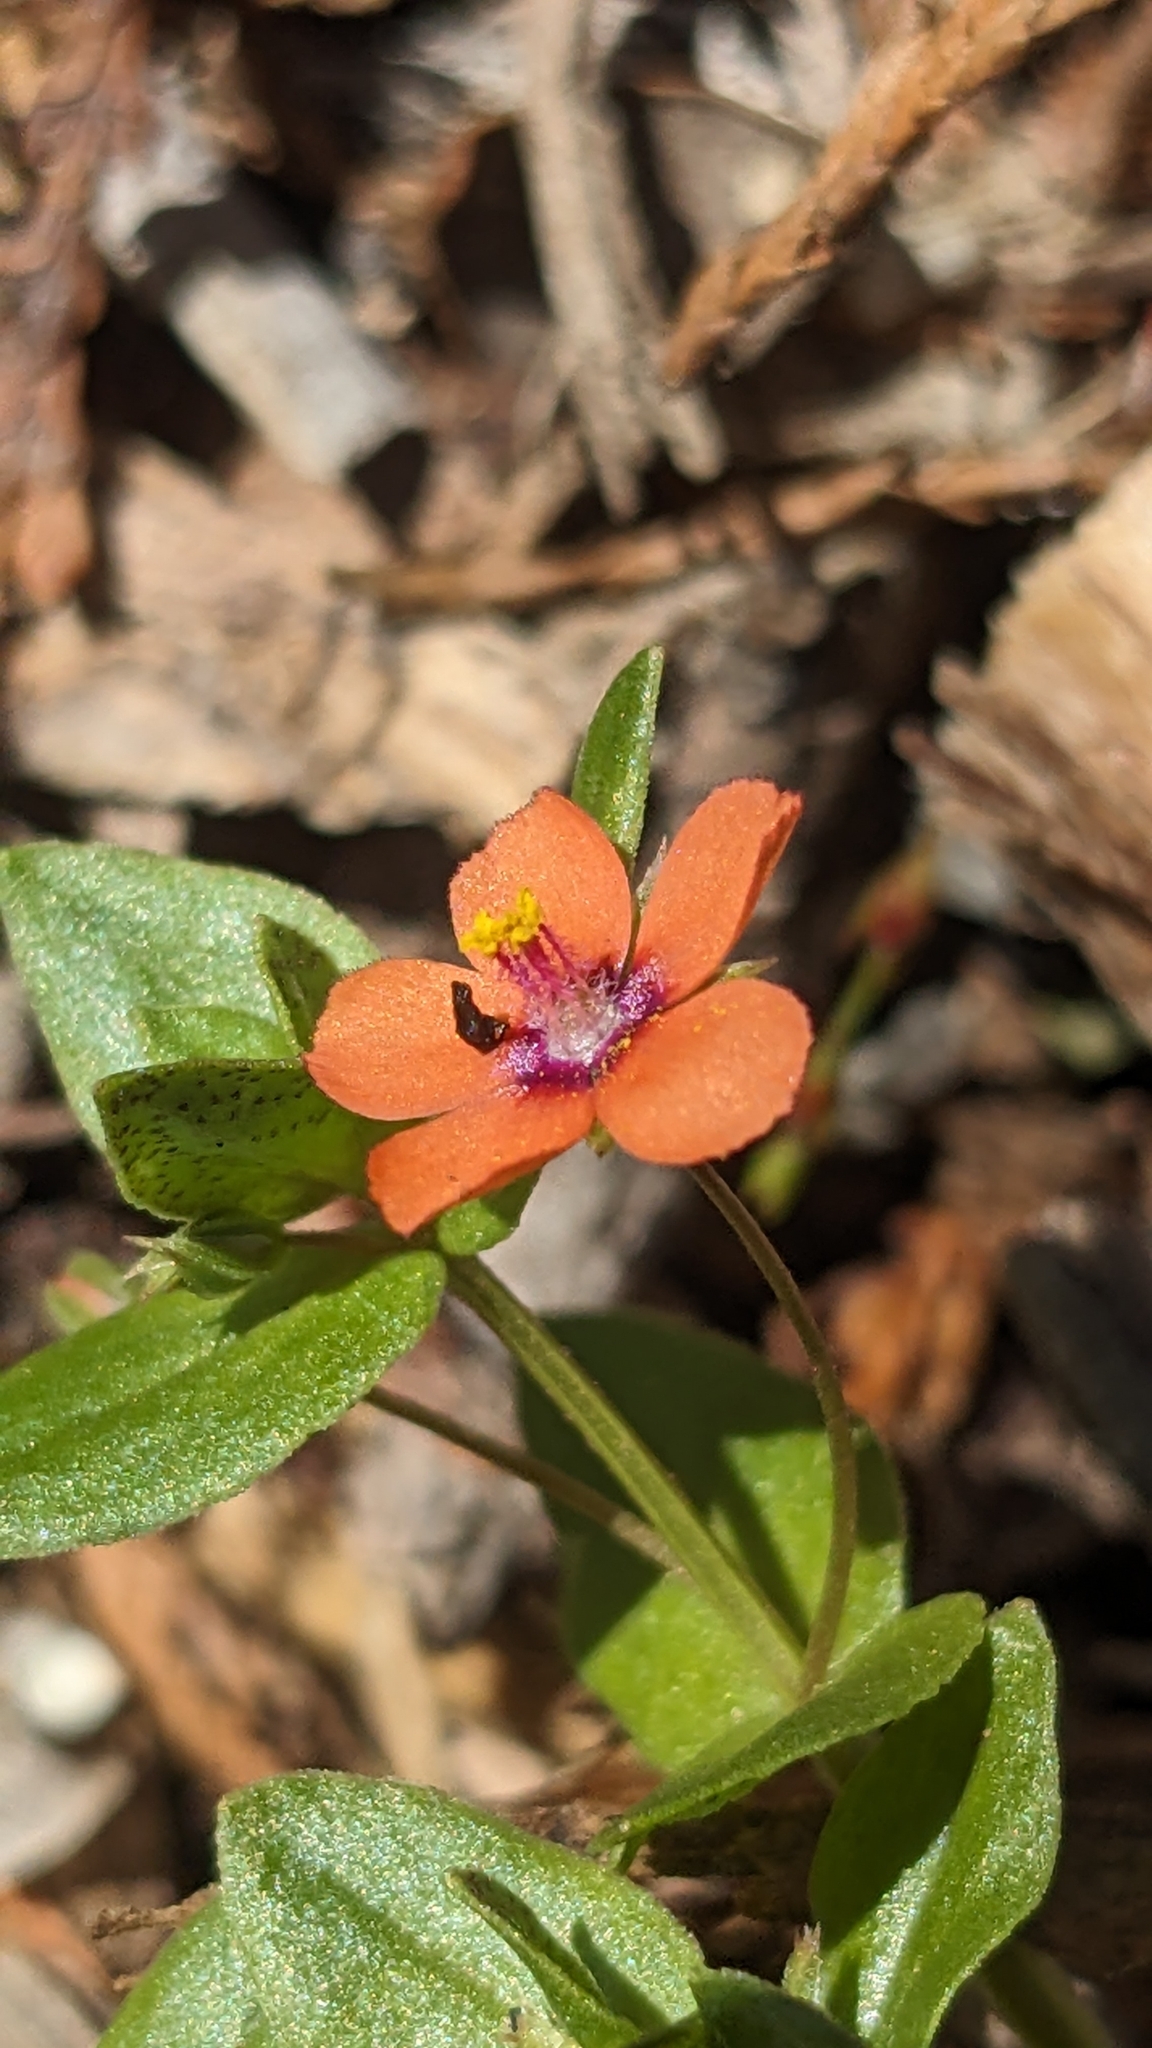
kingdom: Plantae
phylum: Tracheophyta
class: Magnoliopsida
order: Ericales
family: Primulaceae
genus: Lysimachia
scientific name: Lysimachia arvensis
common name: Scarlet pimpernel
